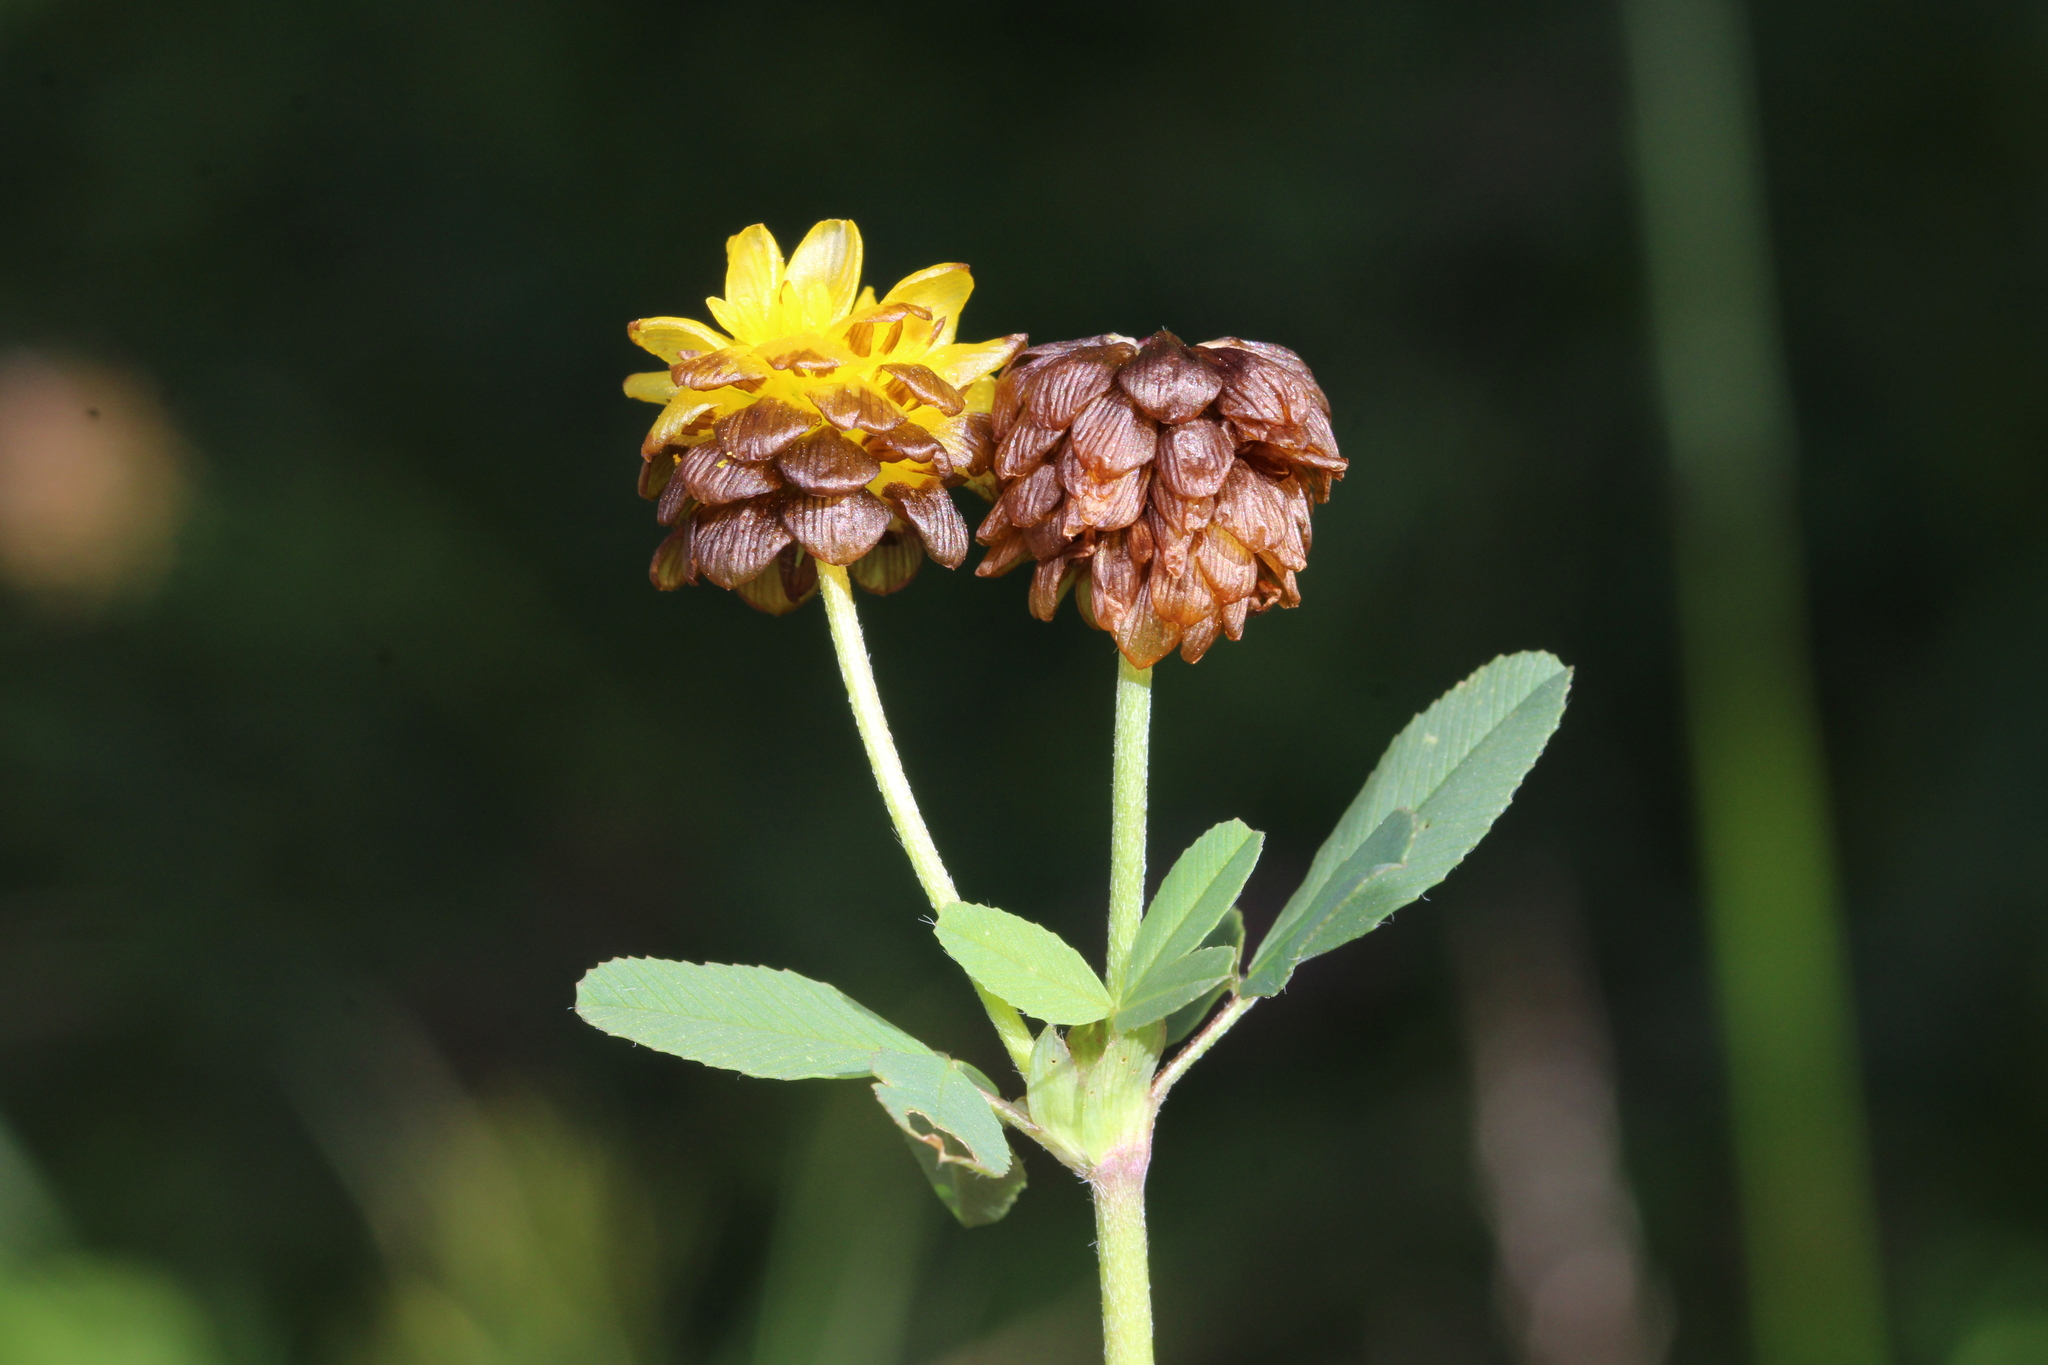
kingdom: Plantae
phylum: Tracheophyta
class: Magnoliopsida
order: Fabales
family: Fabaceae
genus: Trifolium
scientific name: Trifolium badium
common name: Brown clover
